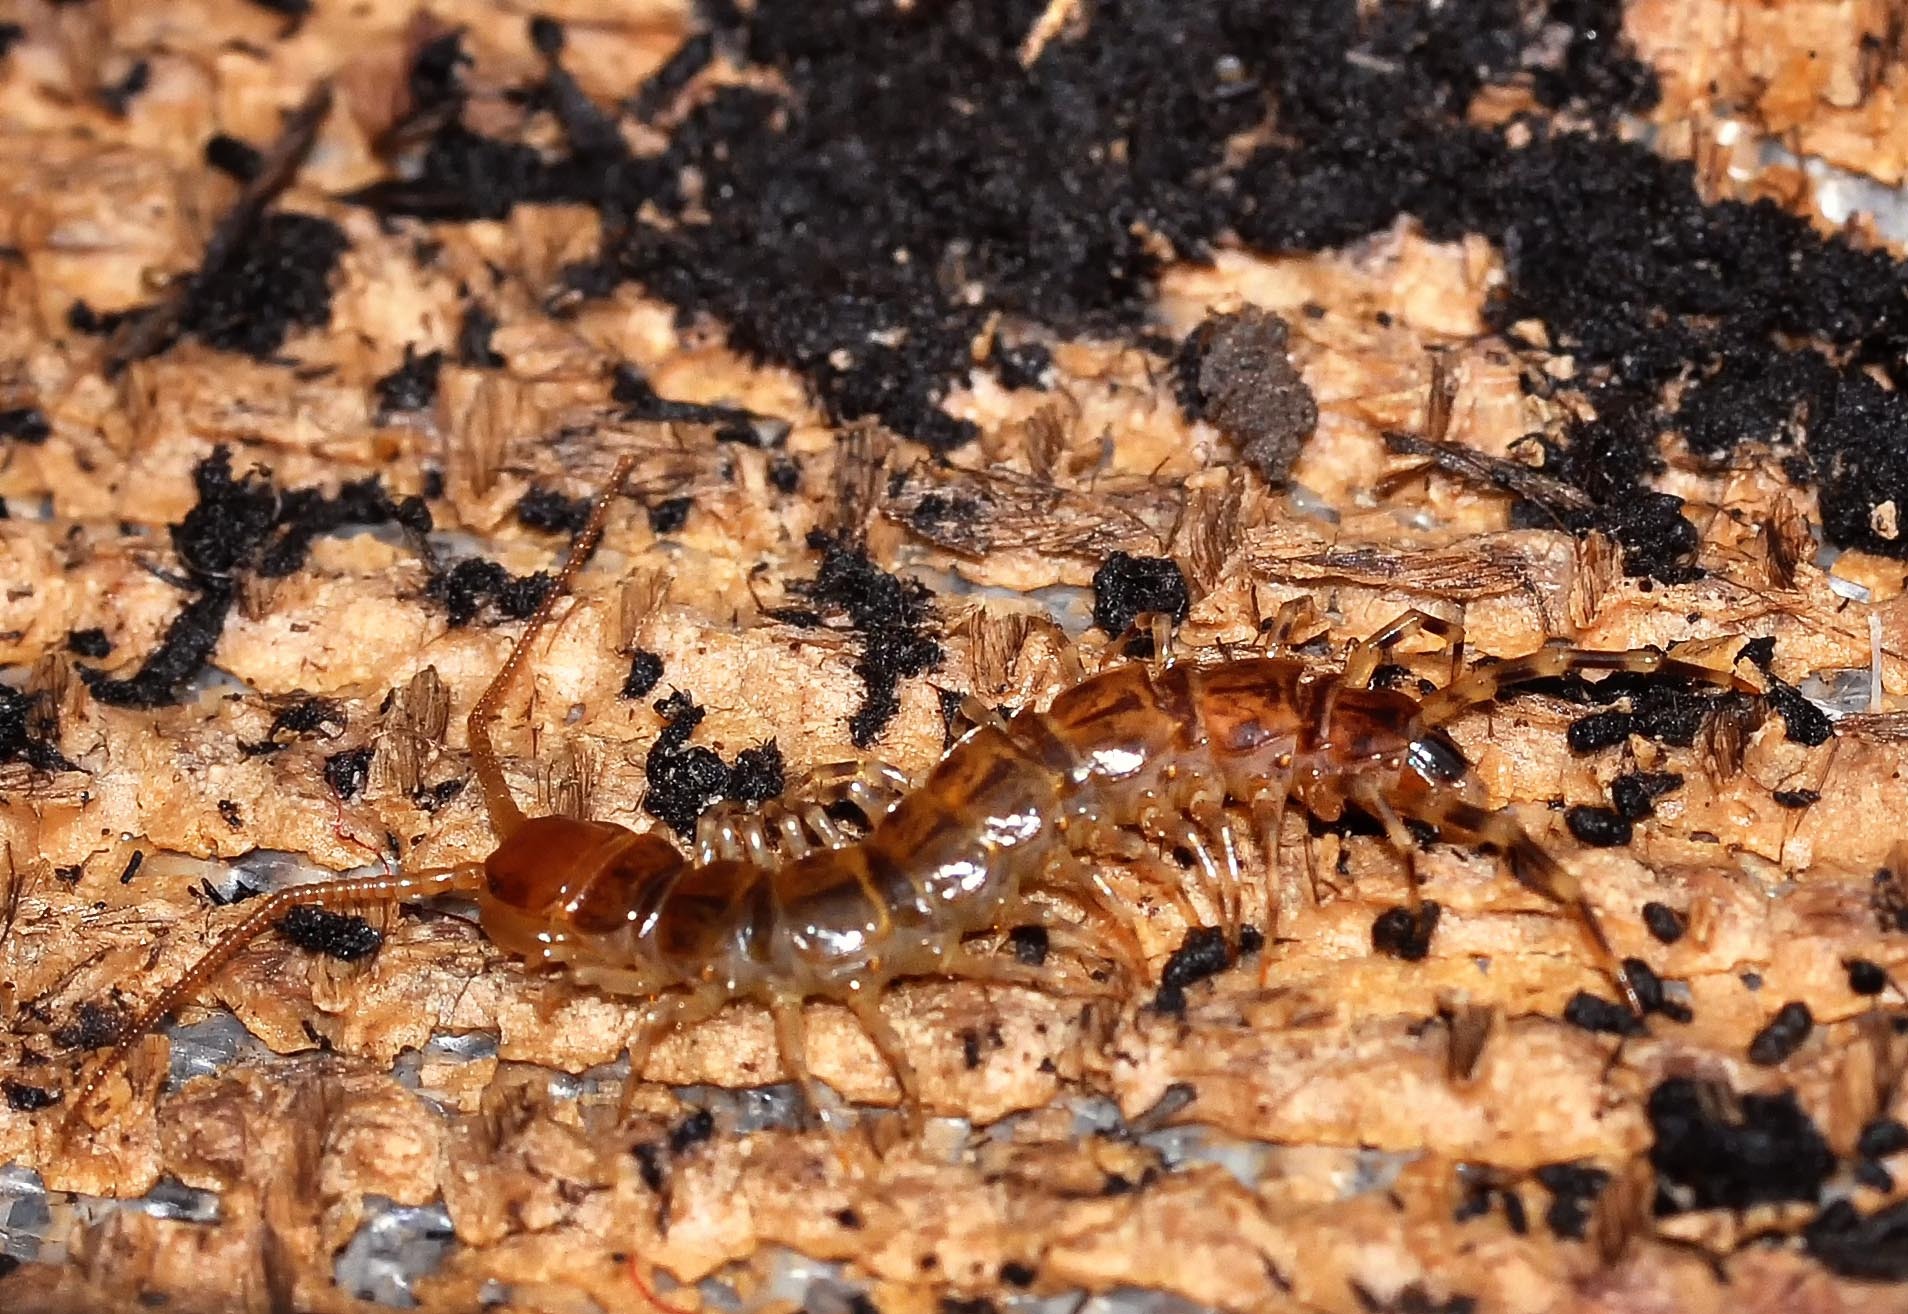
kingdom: Animalia
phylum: Arthropoda
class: Chilopoda
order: Lithobiomorpha
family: Lithobiidae
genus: Lithobius
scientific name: Lithobius variegatus
